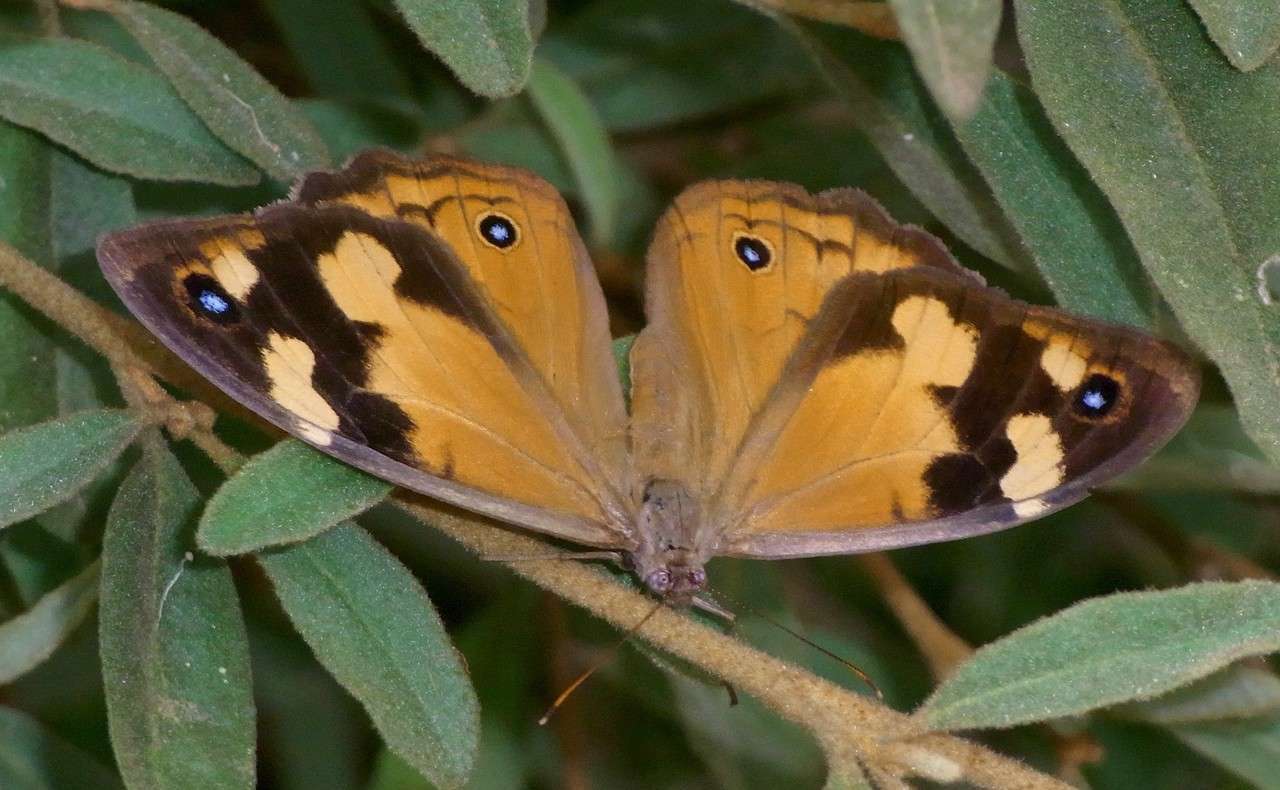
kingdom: Animalia
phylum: Arthropoda
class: Insecta
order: Lepidoptera
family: Nymphalidae
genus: Heteronympha
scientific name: Heteronympha merope
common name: Common brown
